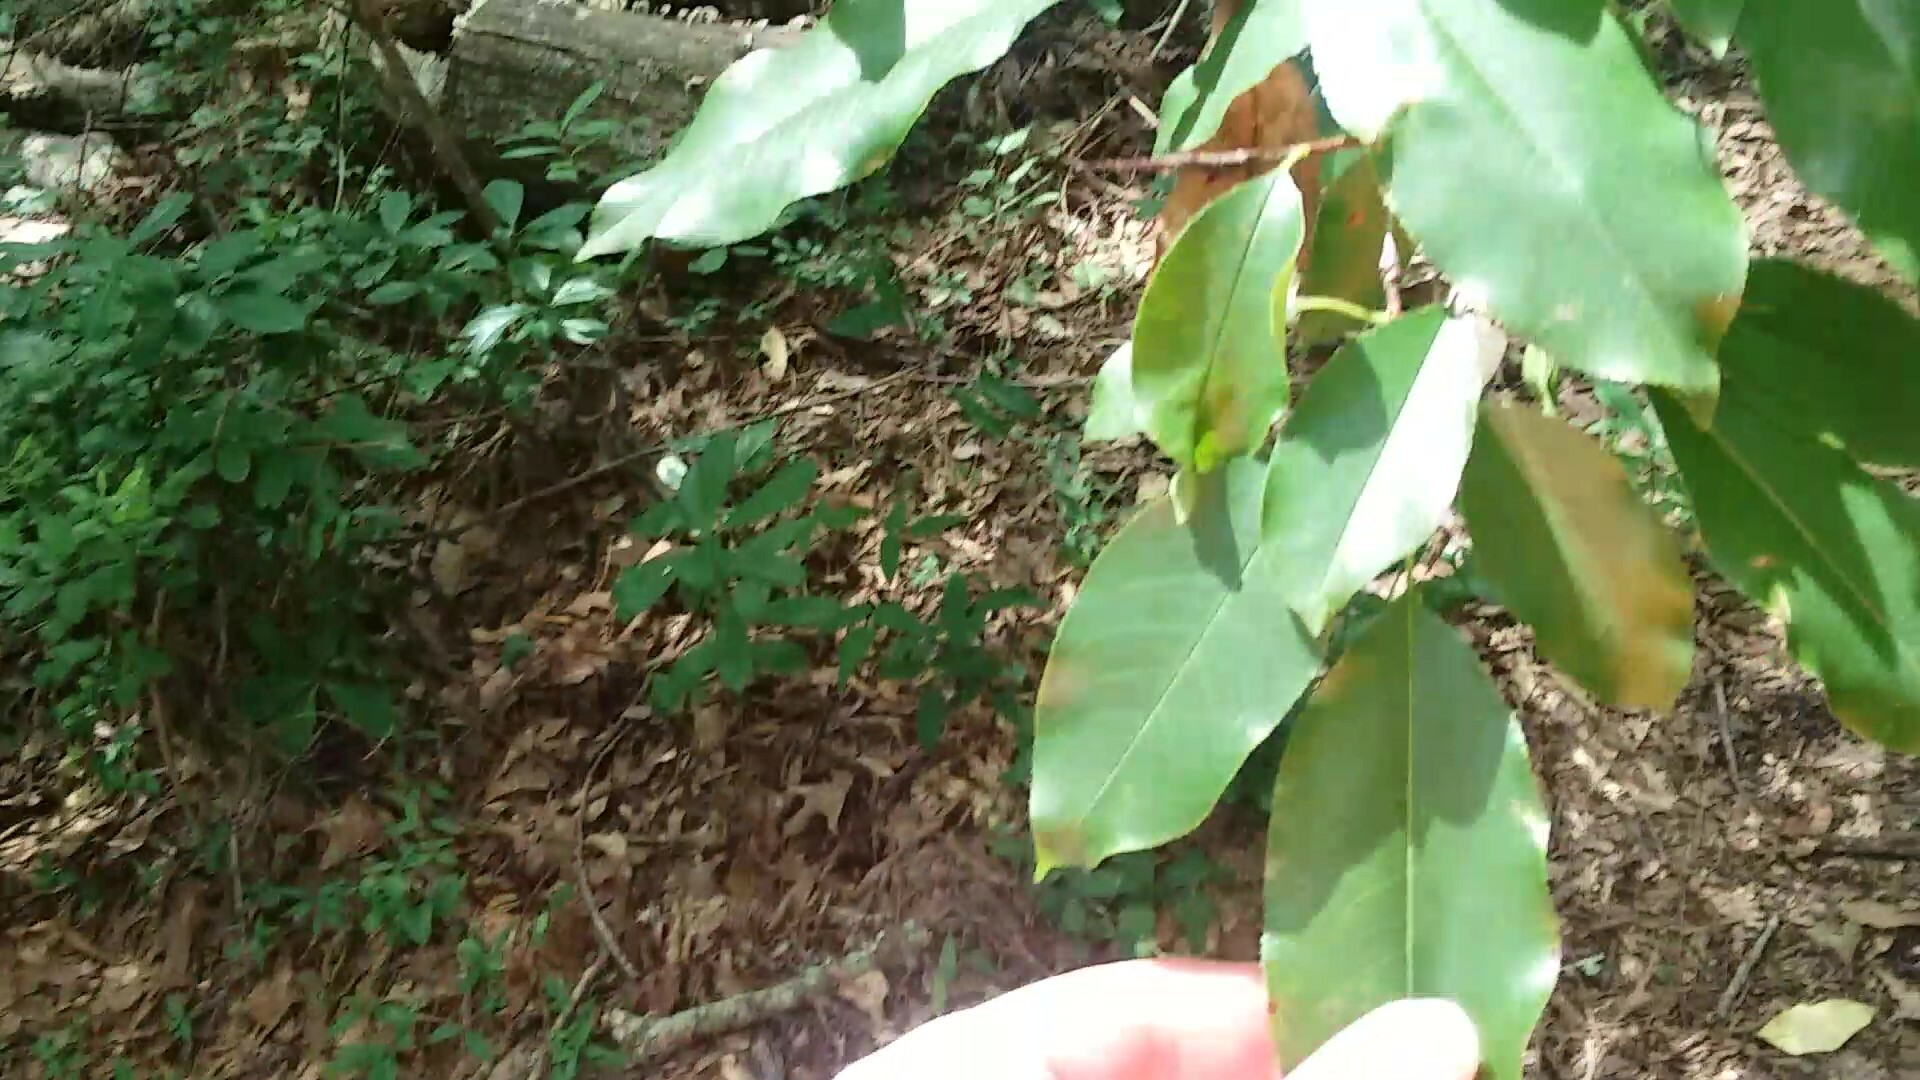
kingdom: Plantae
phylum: Tracheophyta
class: Magnoliopsida
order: Rosales
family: Rosaceae
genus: Prunus
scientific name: Prunus serotina
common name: Black cherry
